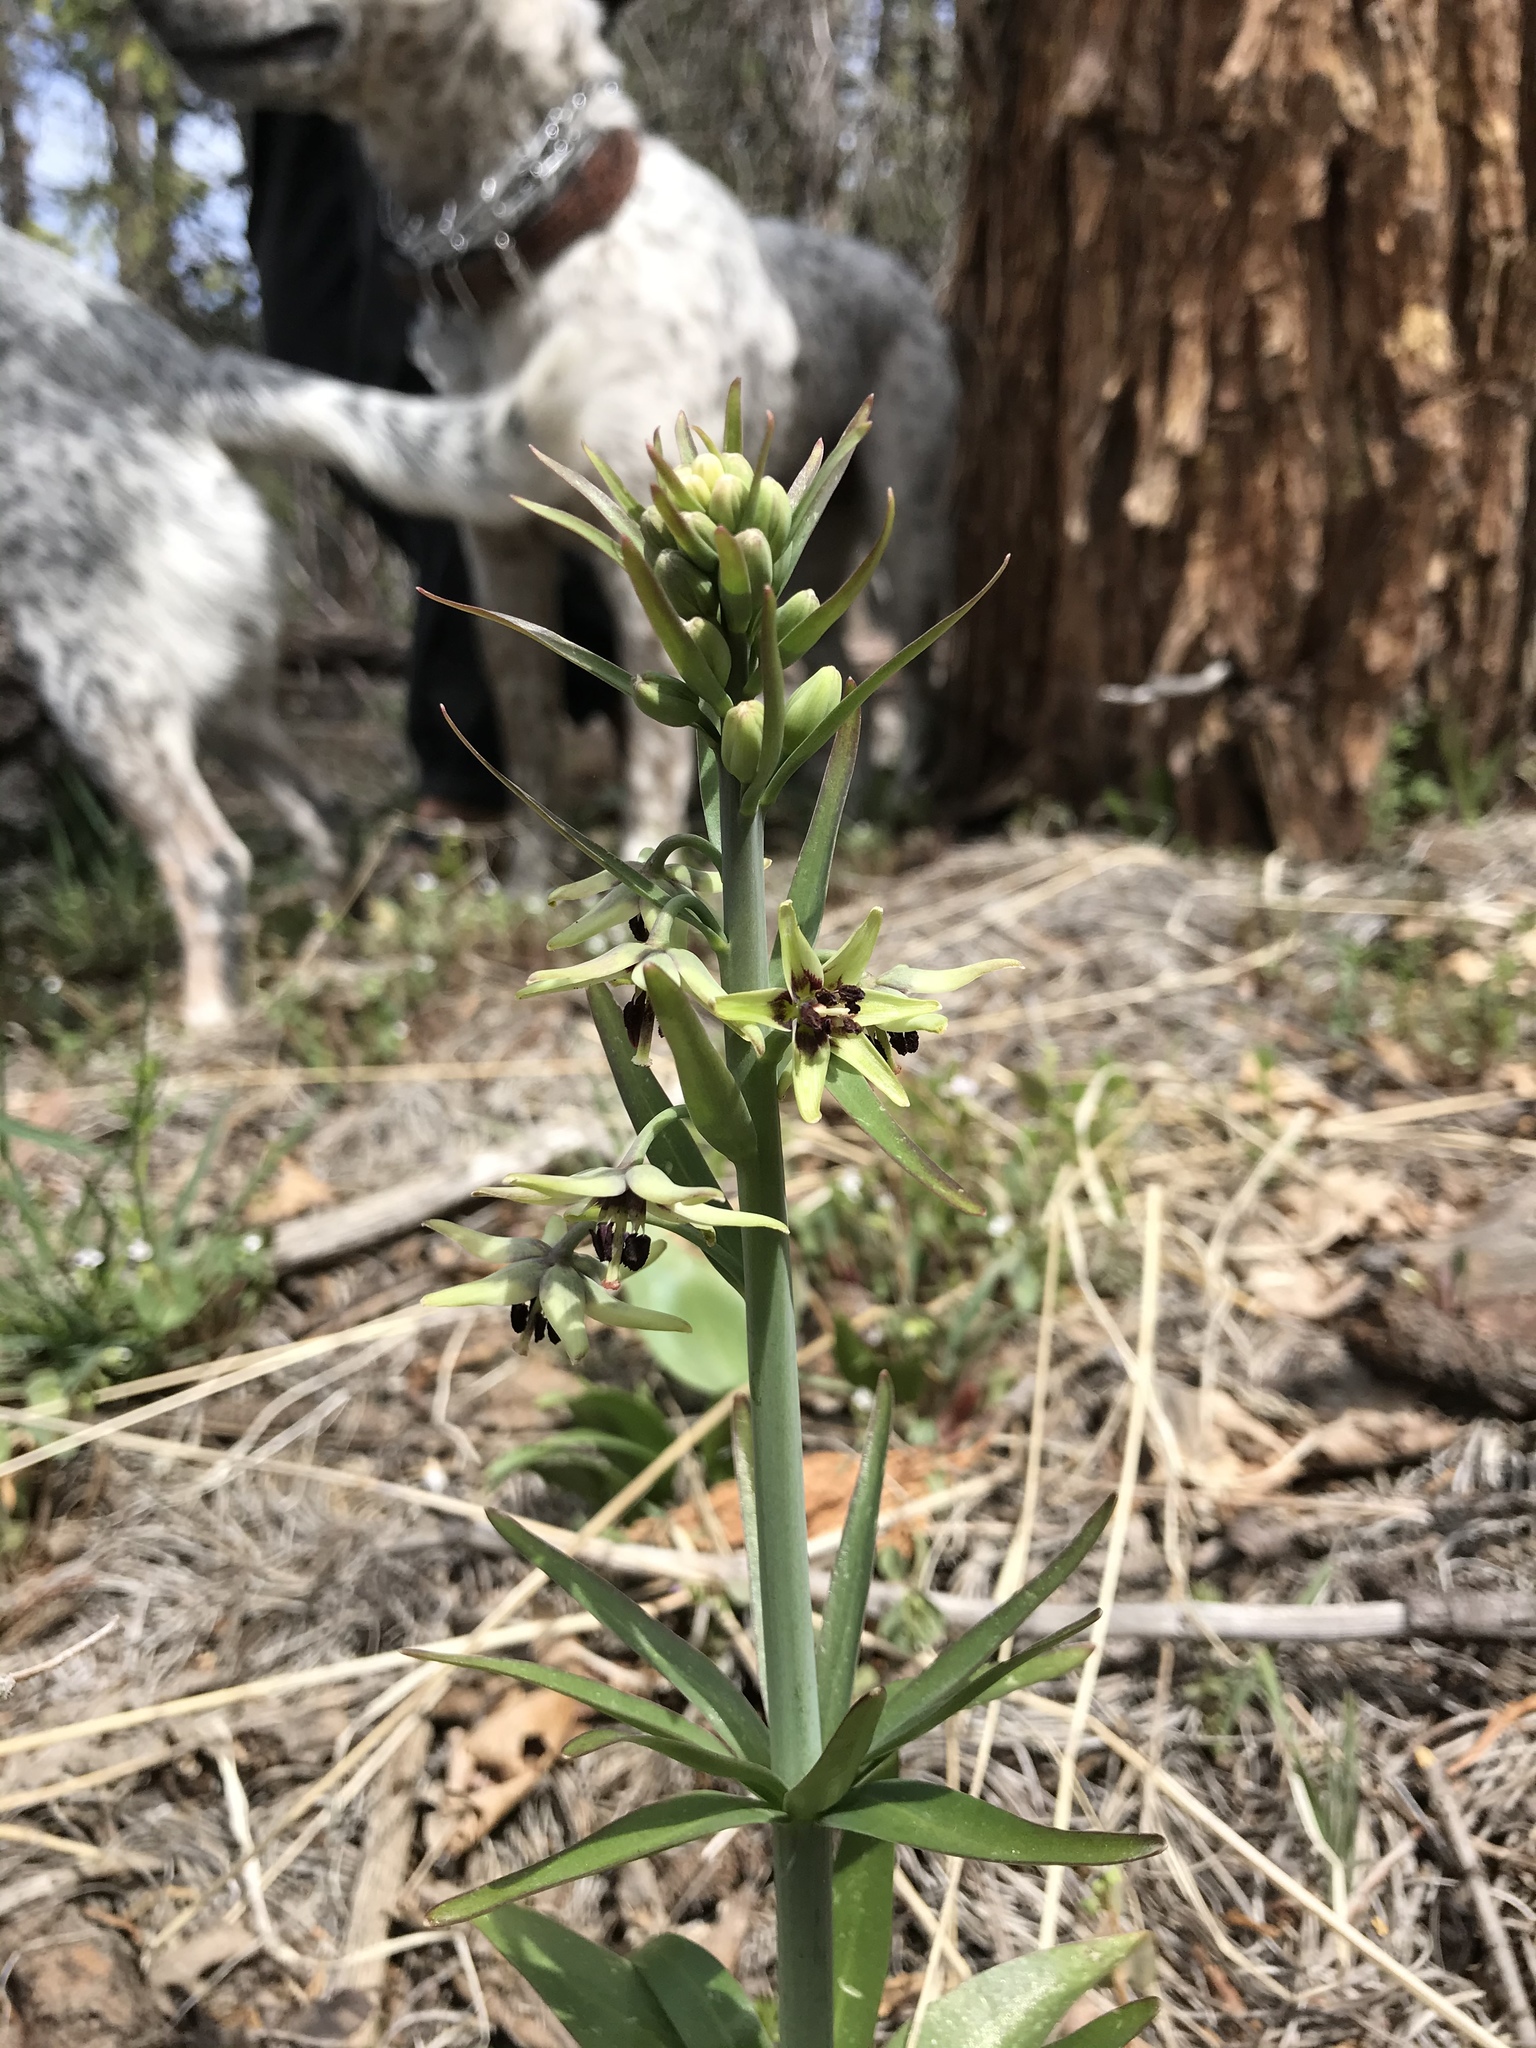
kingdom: Plantae
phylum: Tracheophyta
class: Liliopsida
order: Liliales
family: Liliaceae
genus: Fritillaria
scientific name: Fritillaria brandegeei
